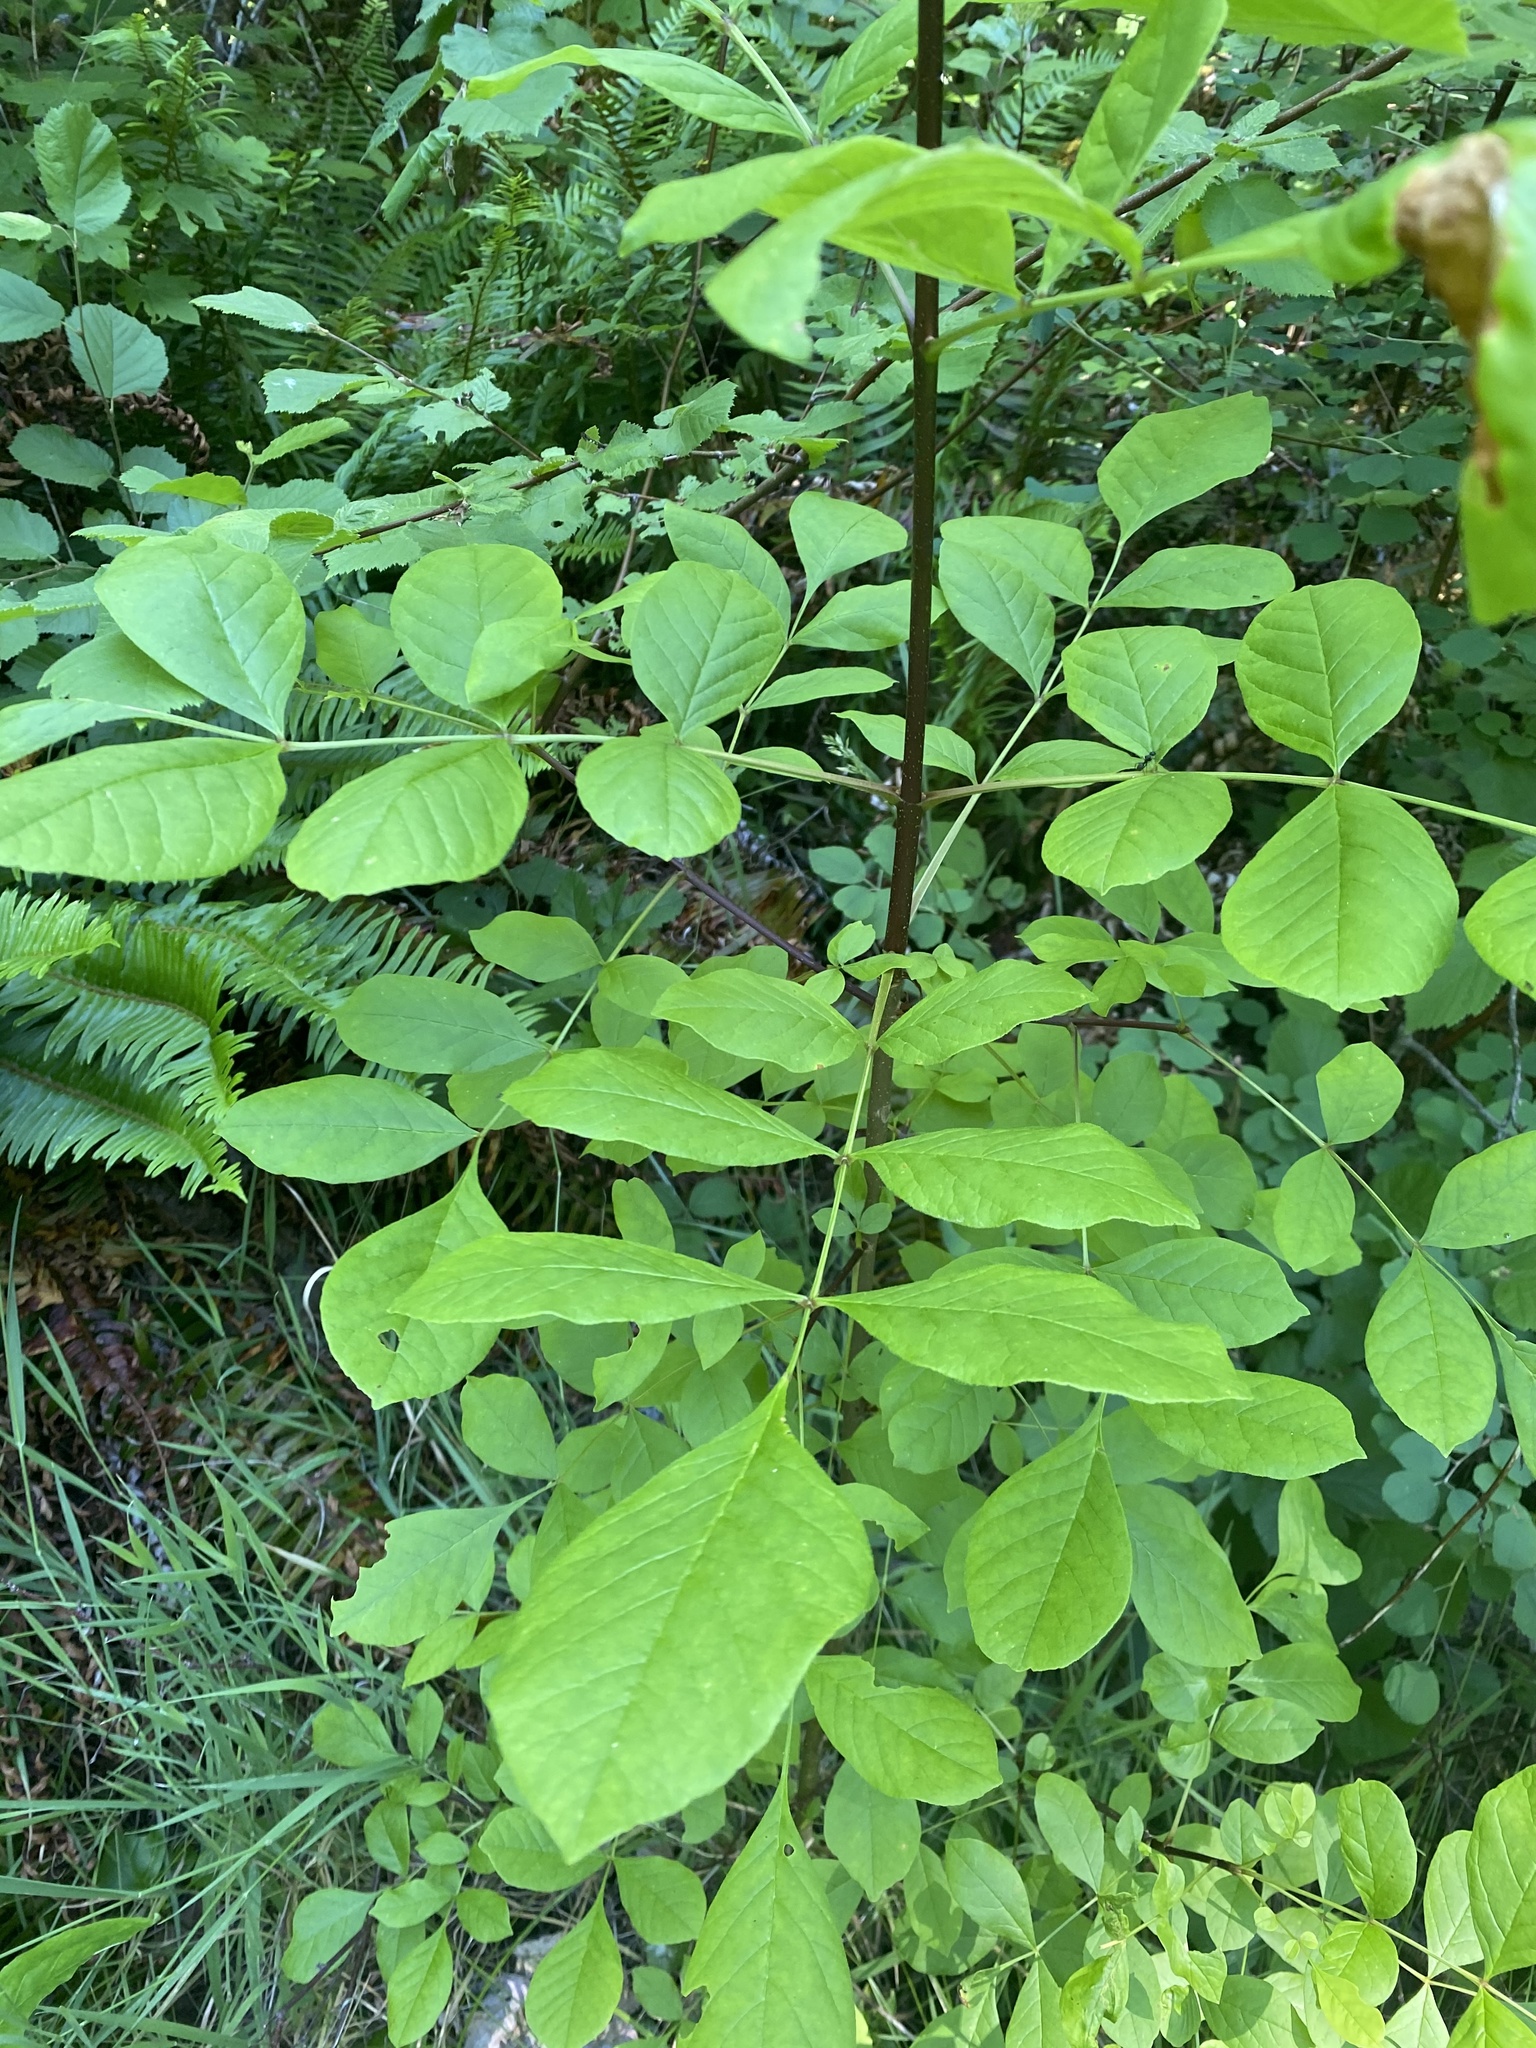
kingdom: Plantae
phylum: Tracheophyta
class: Magnoliopsida
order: Lamiales
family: Oleaceae
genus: Fraxinus
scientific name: Fraxinus latifolia
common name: Oregon ash
